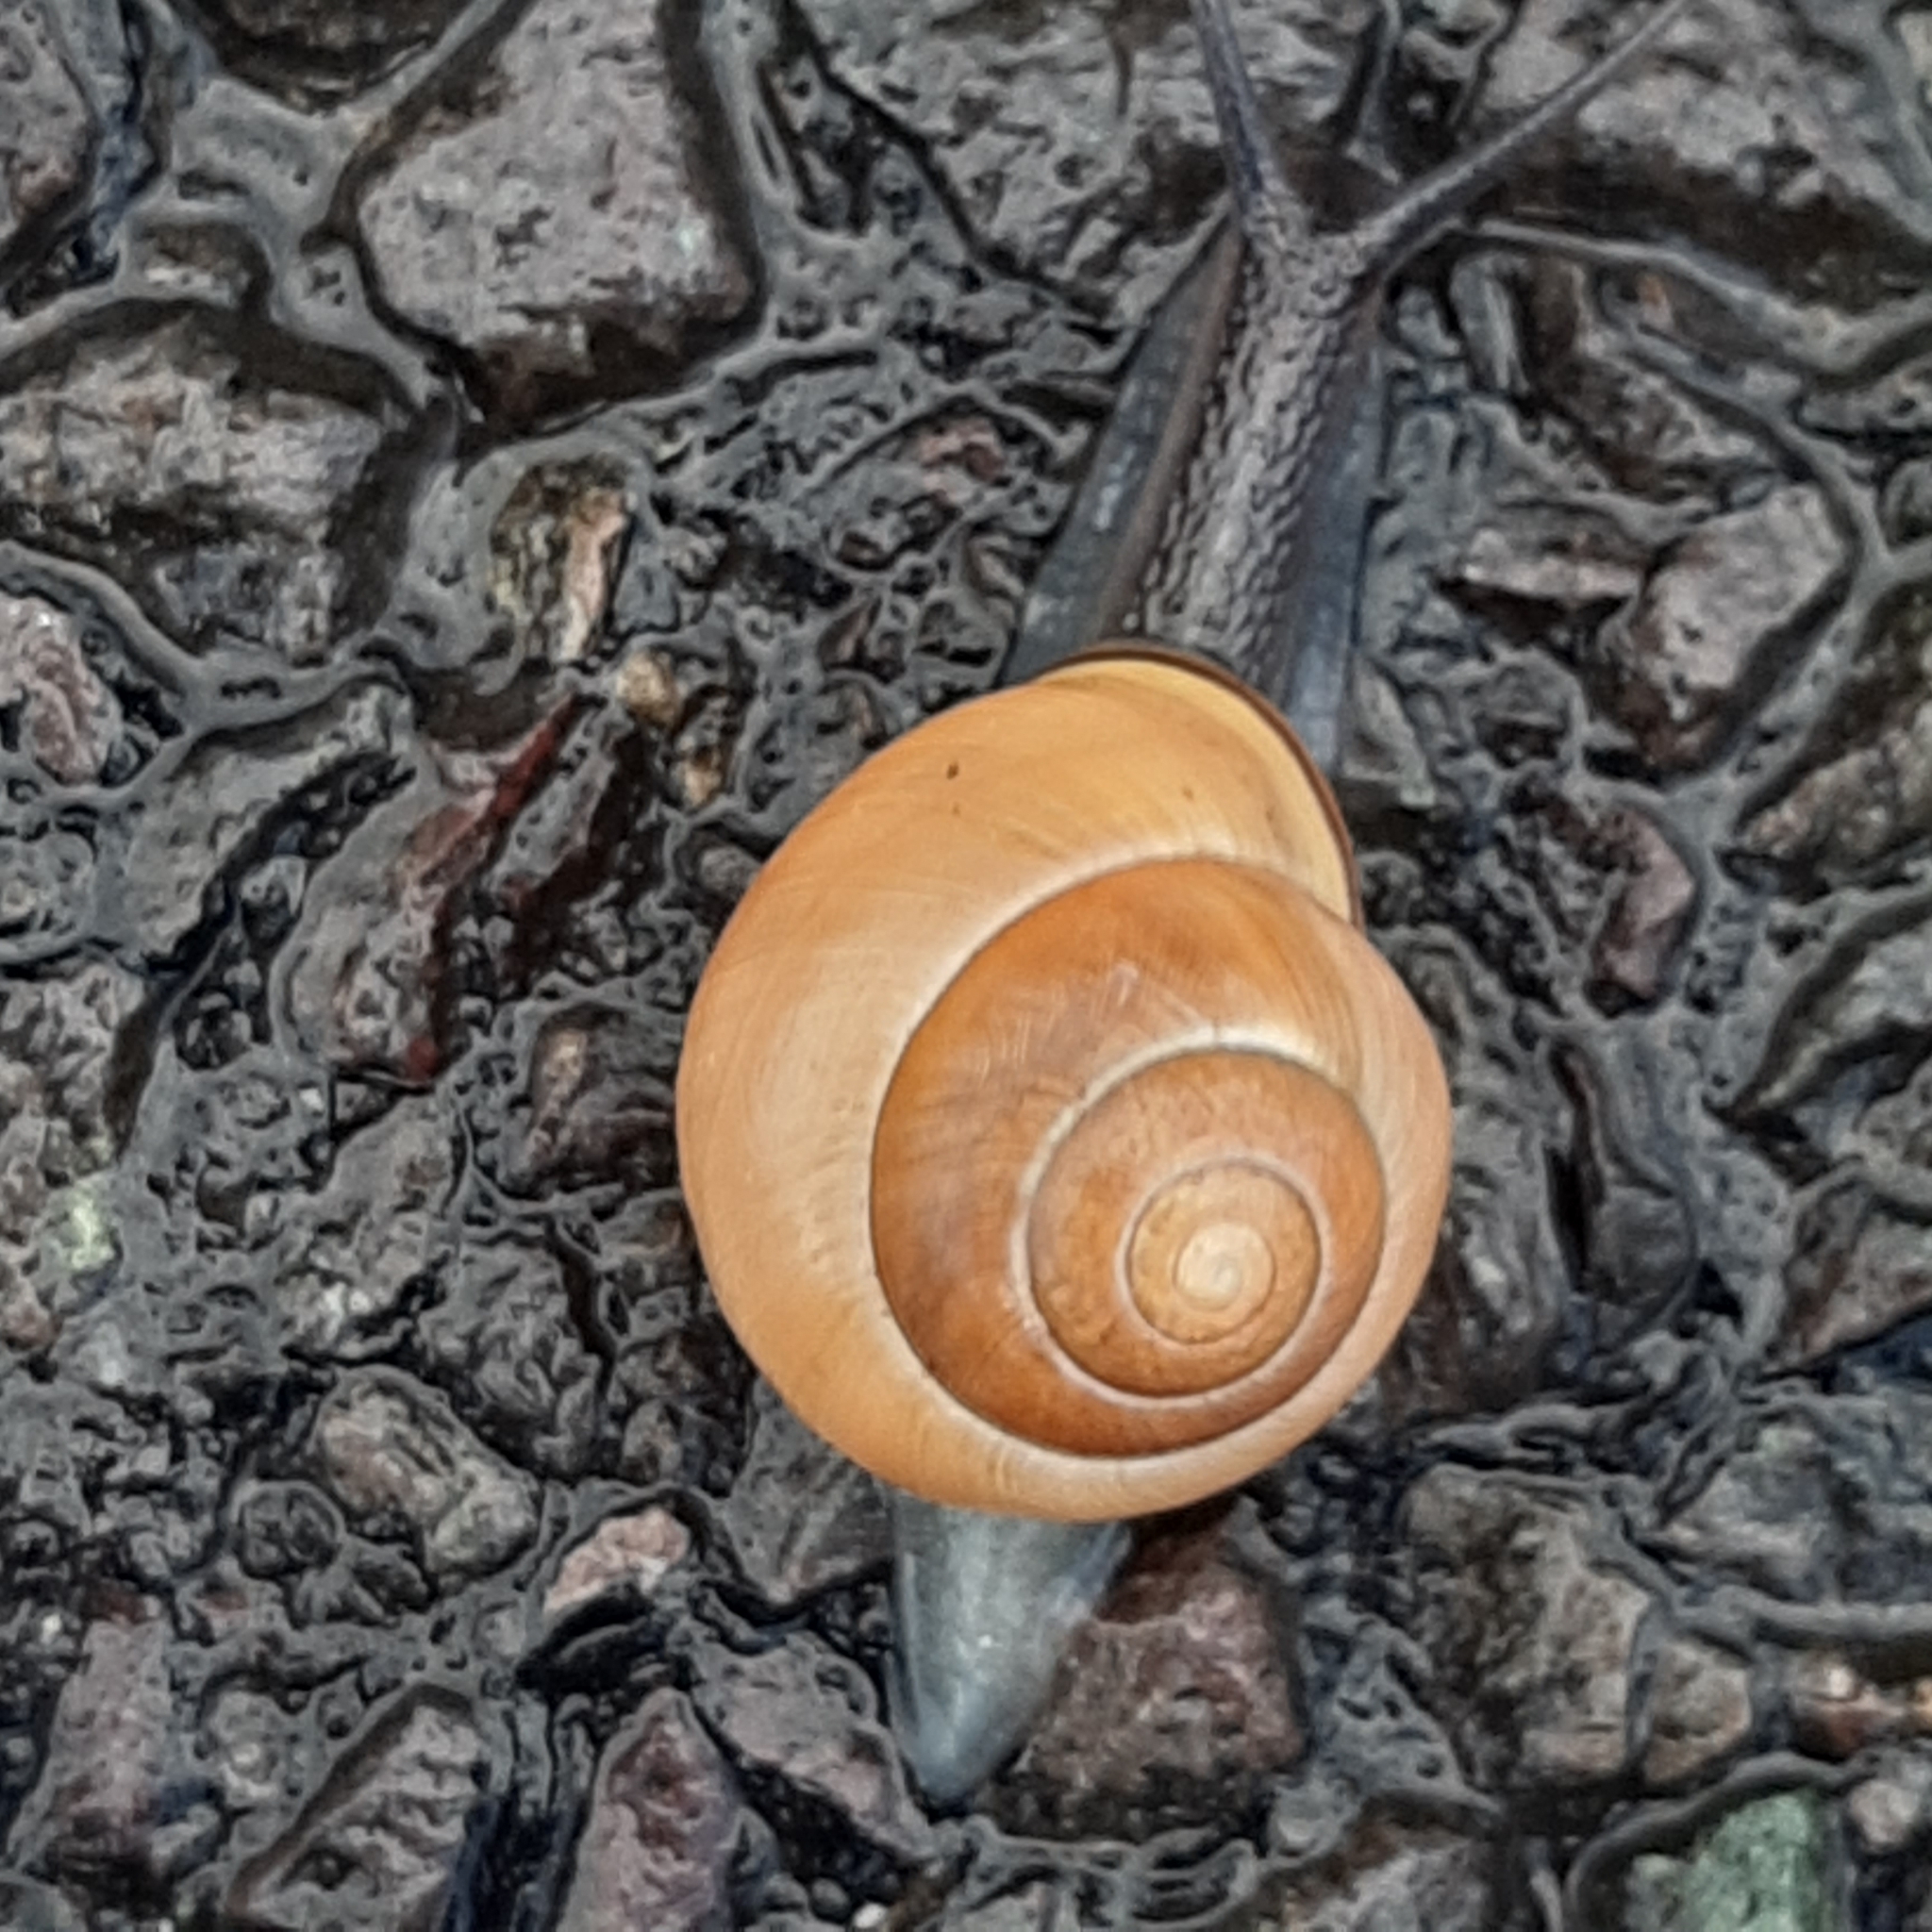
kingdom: Animalia
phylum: Mollusca
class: Gastropoda
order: Stylommatophora
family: Helicidae
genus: Cepaea
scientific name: Cepaea nemoralis
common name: Grovesnail
